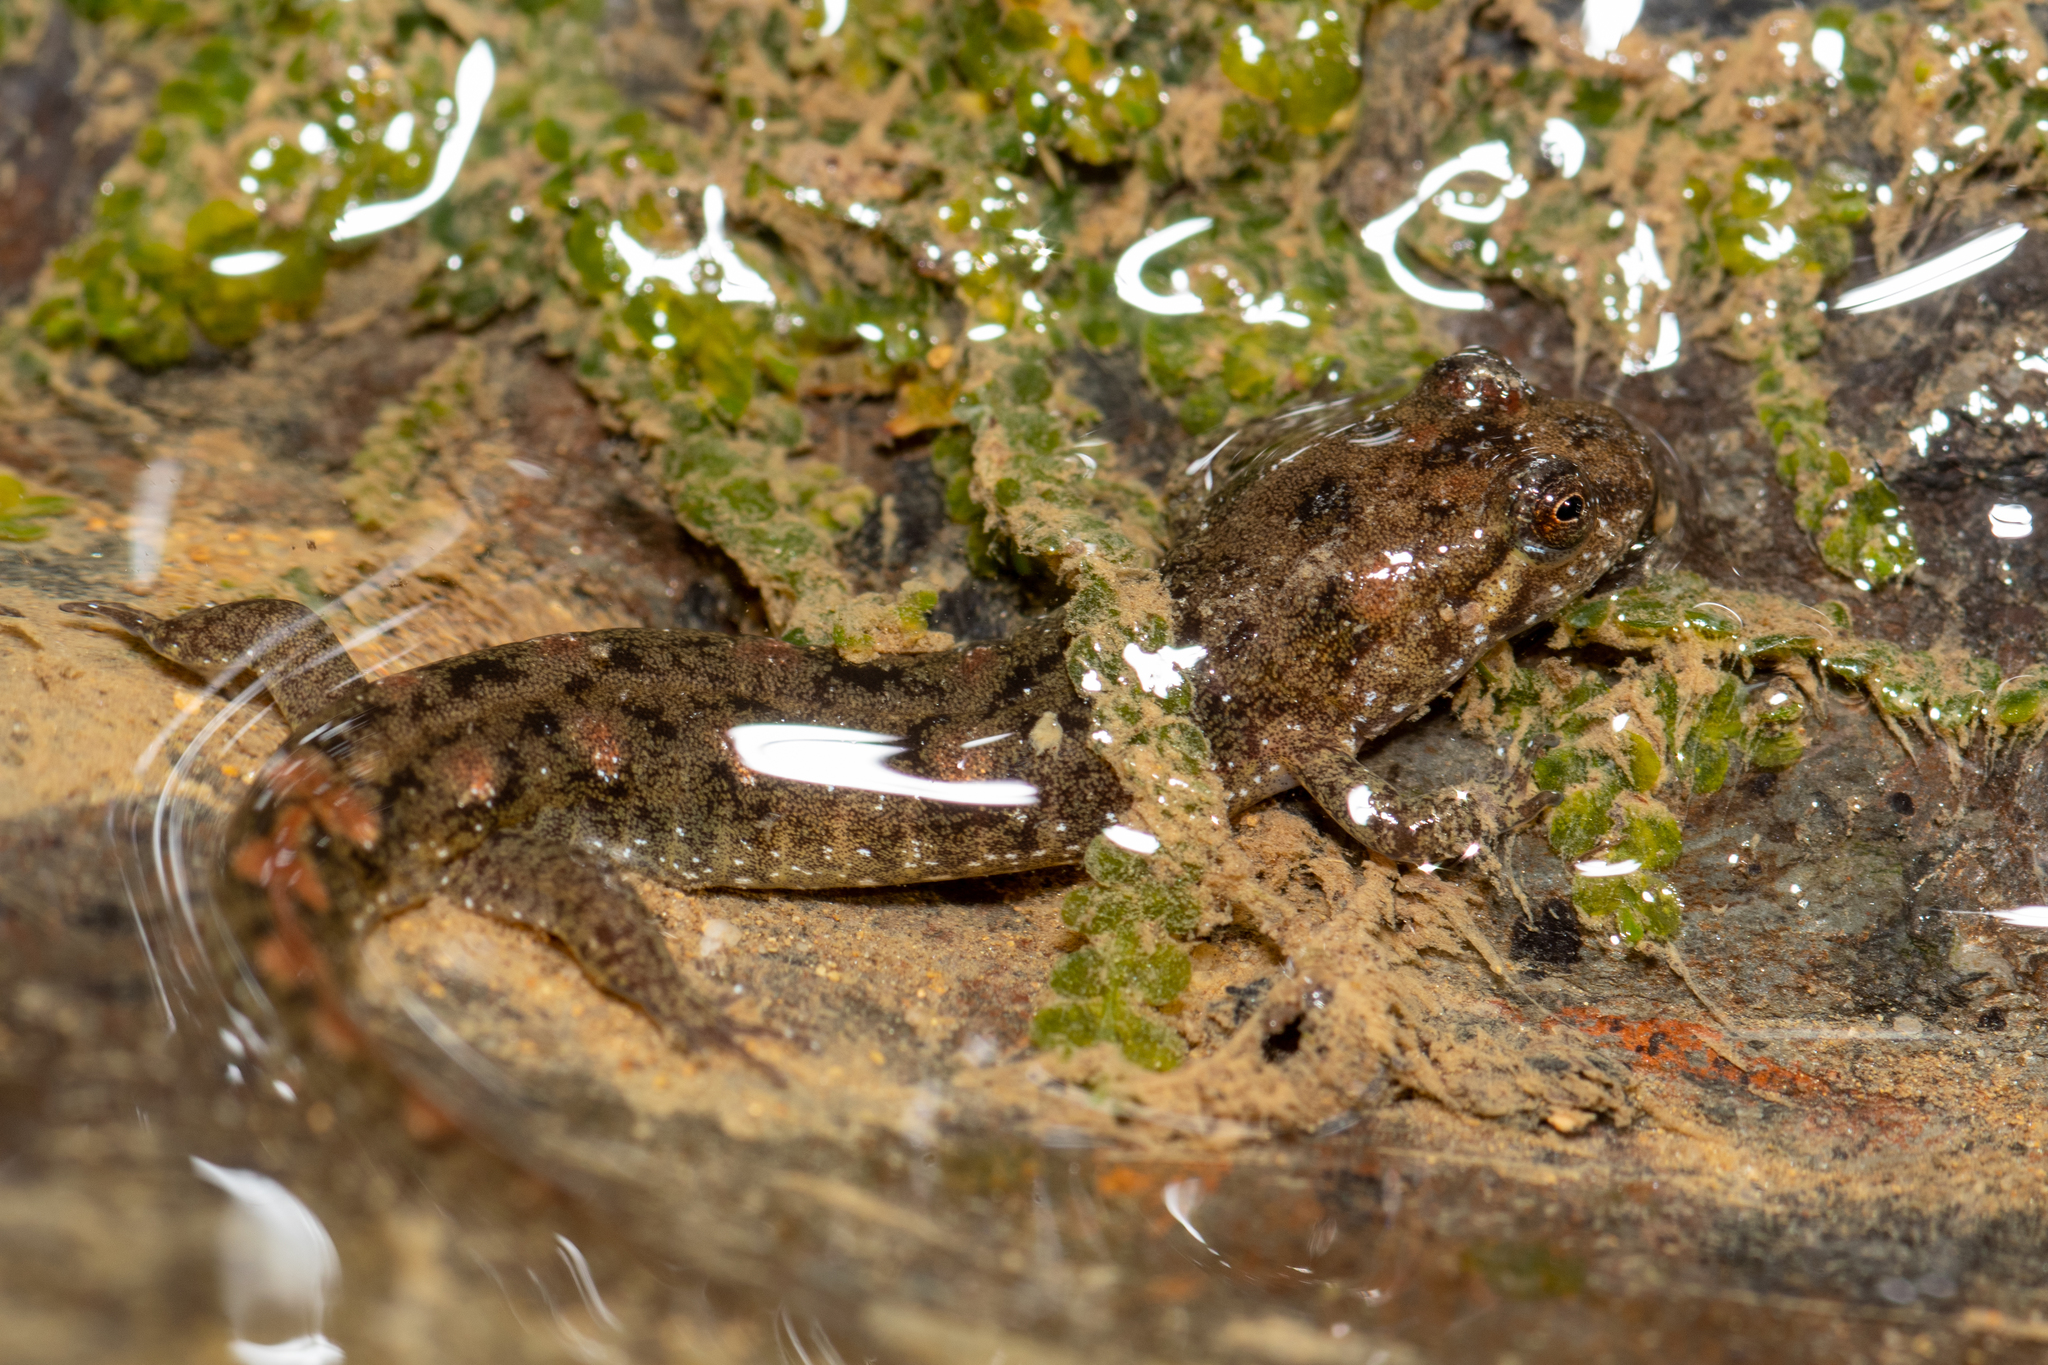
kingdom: Animalia
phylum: Chordata
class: Amphibia
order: Caudata
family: Plethodontidae
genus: Desmognathus
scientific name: Desmognathus monticola
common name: Seal salamander
